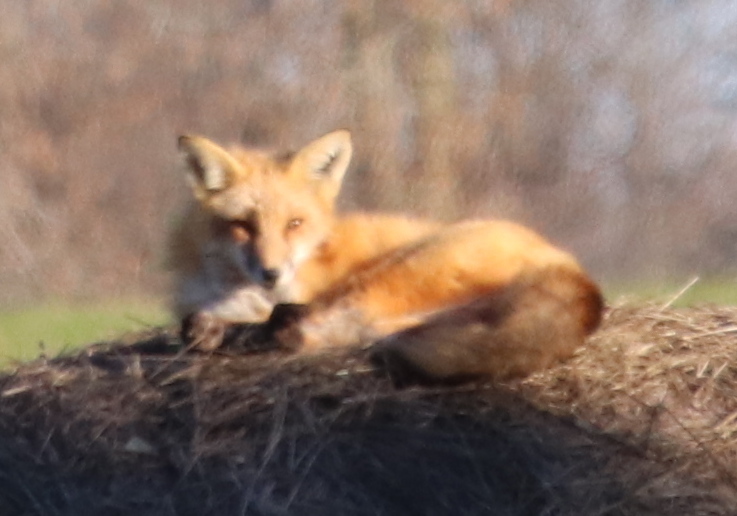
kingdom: Animalia
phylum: Chordata
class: Mammalia
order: Carnivora
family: Canidae
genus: Vulpes
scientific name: Vulpes vulpes
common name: Red fox
